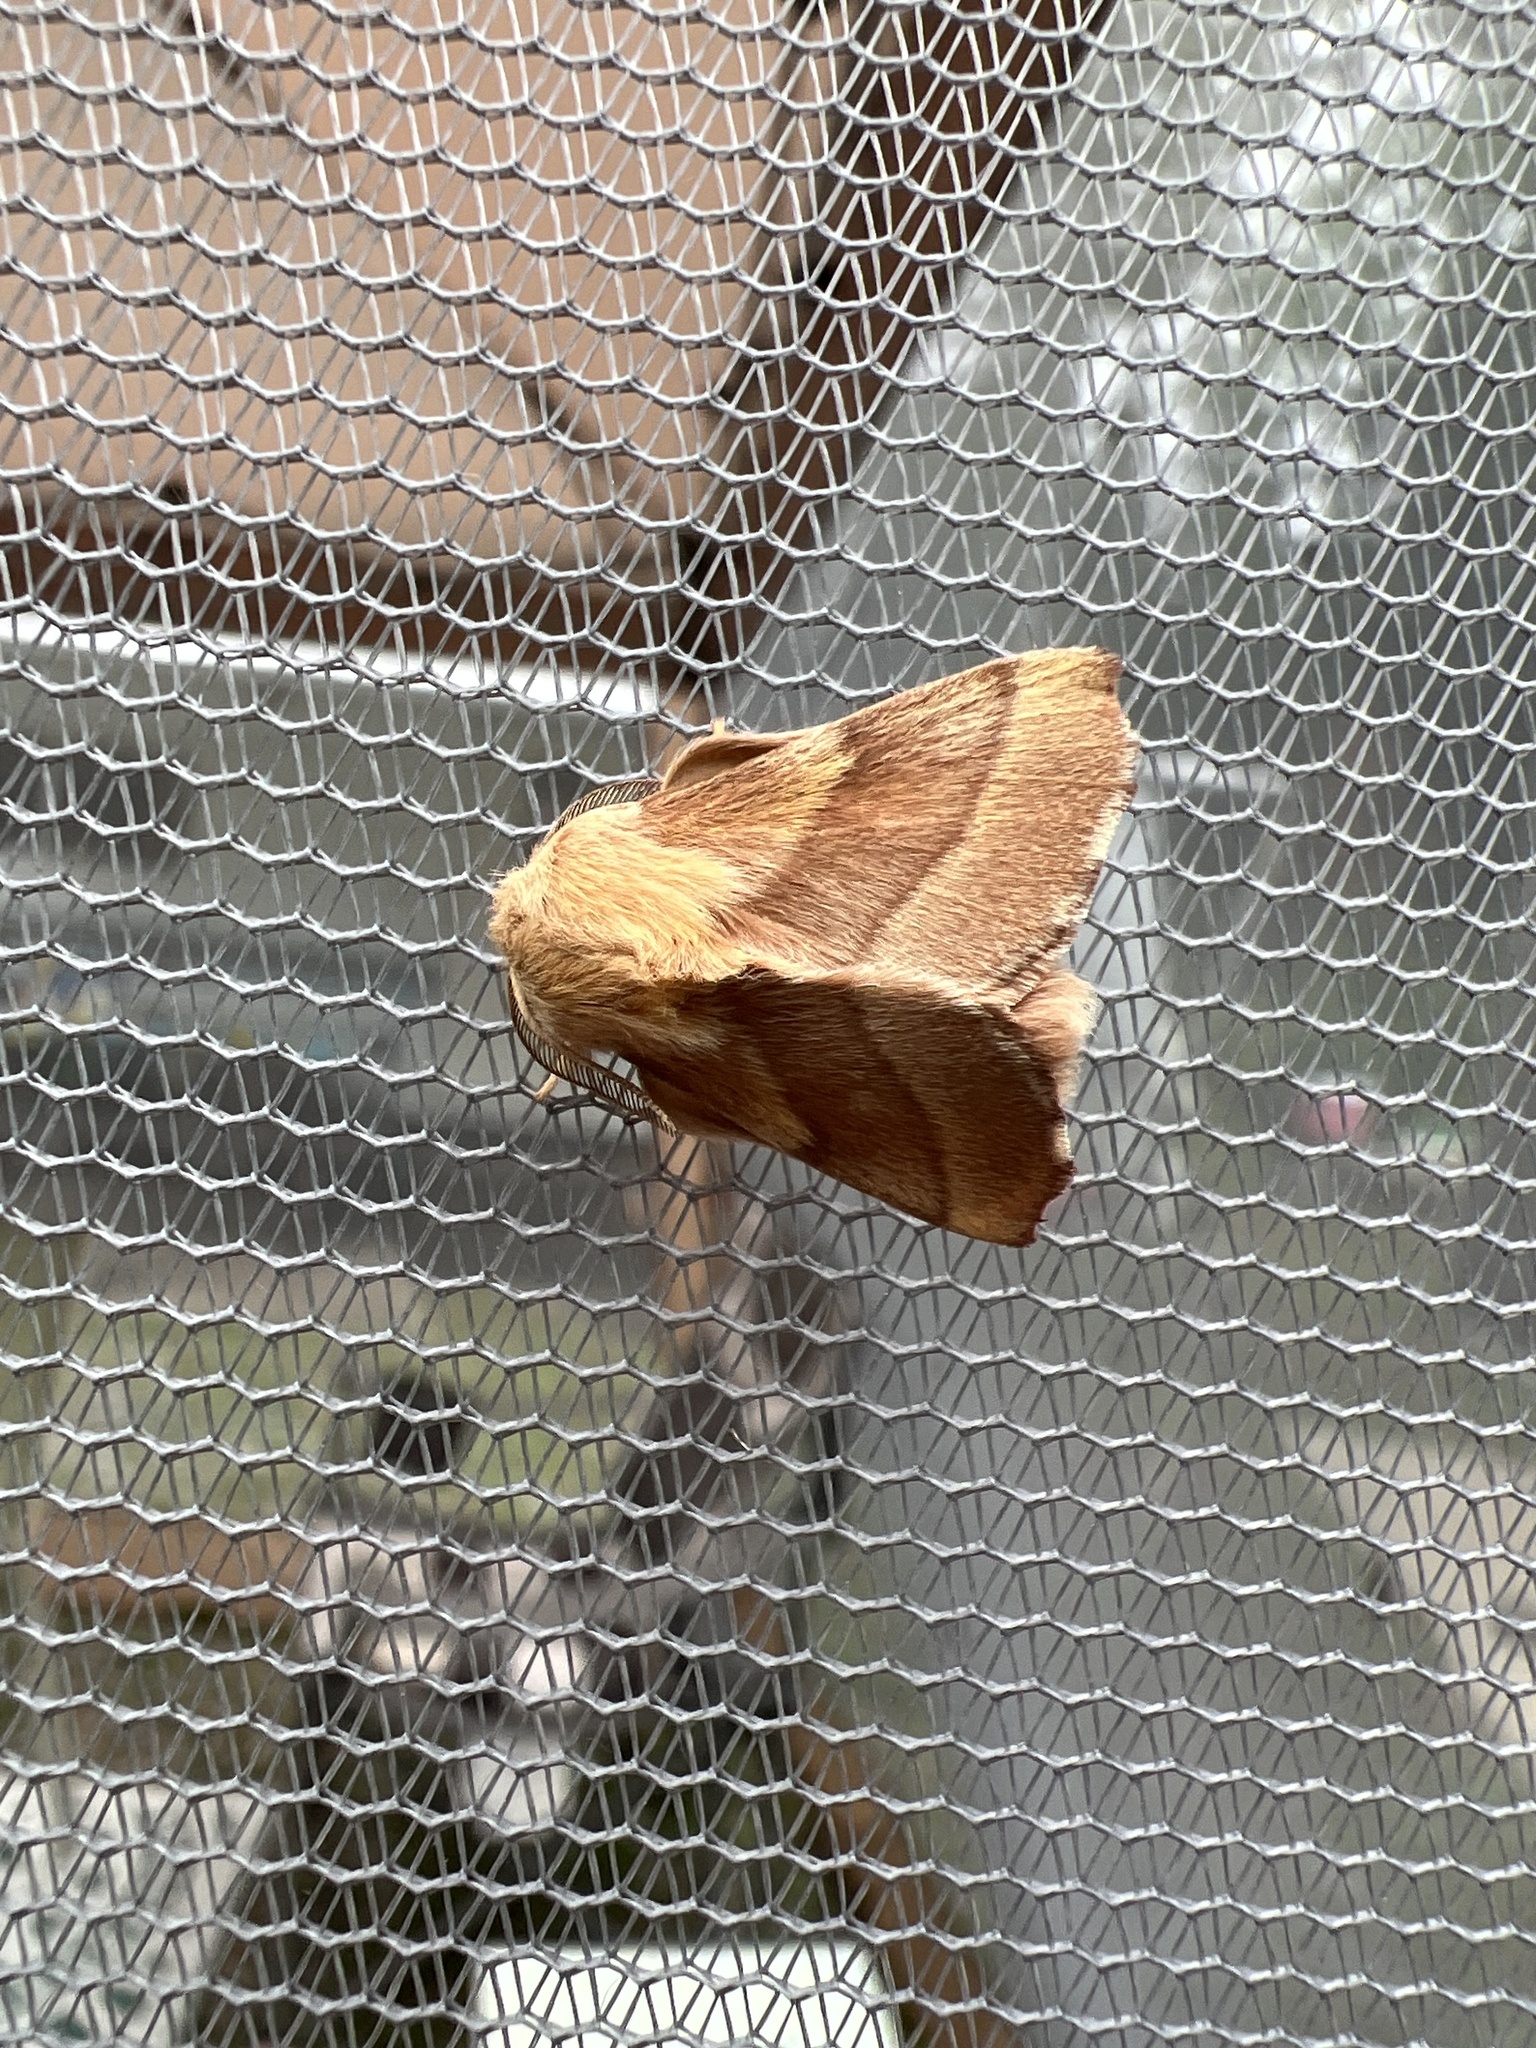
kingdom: Animalia
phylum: Arthropoda
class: Insecta
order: Lepidoptera
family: Lasiocampidae
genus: Malacosoma
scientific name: Malacosoma disstria
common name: Forest tent caterpillar
